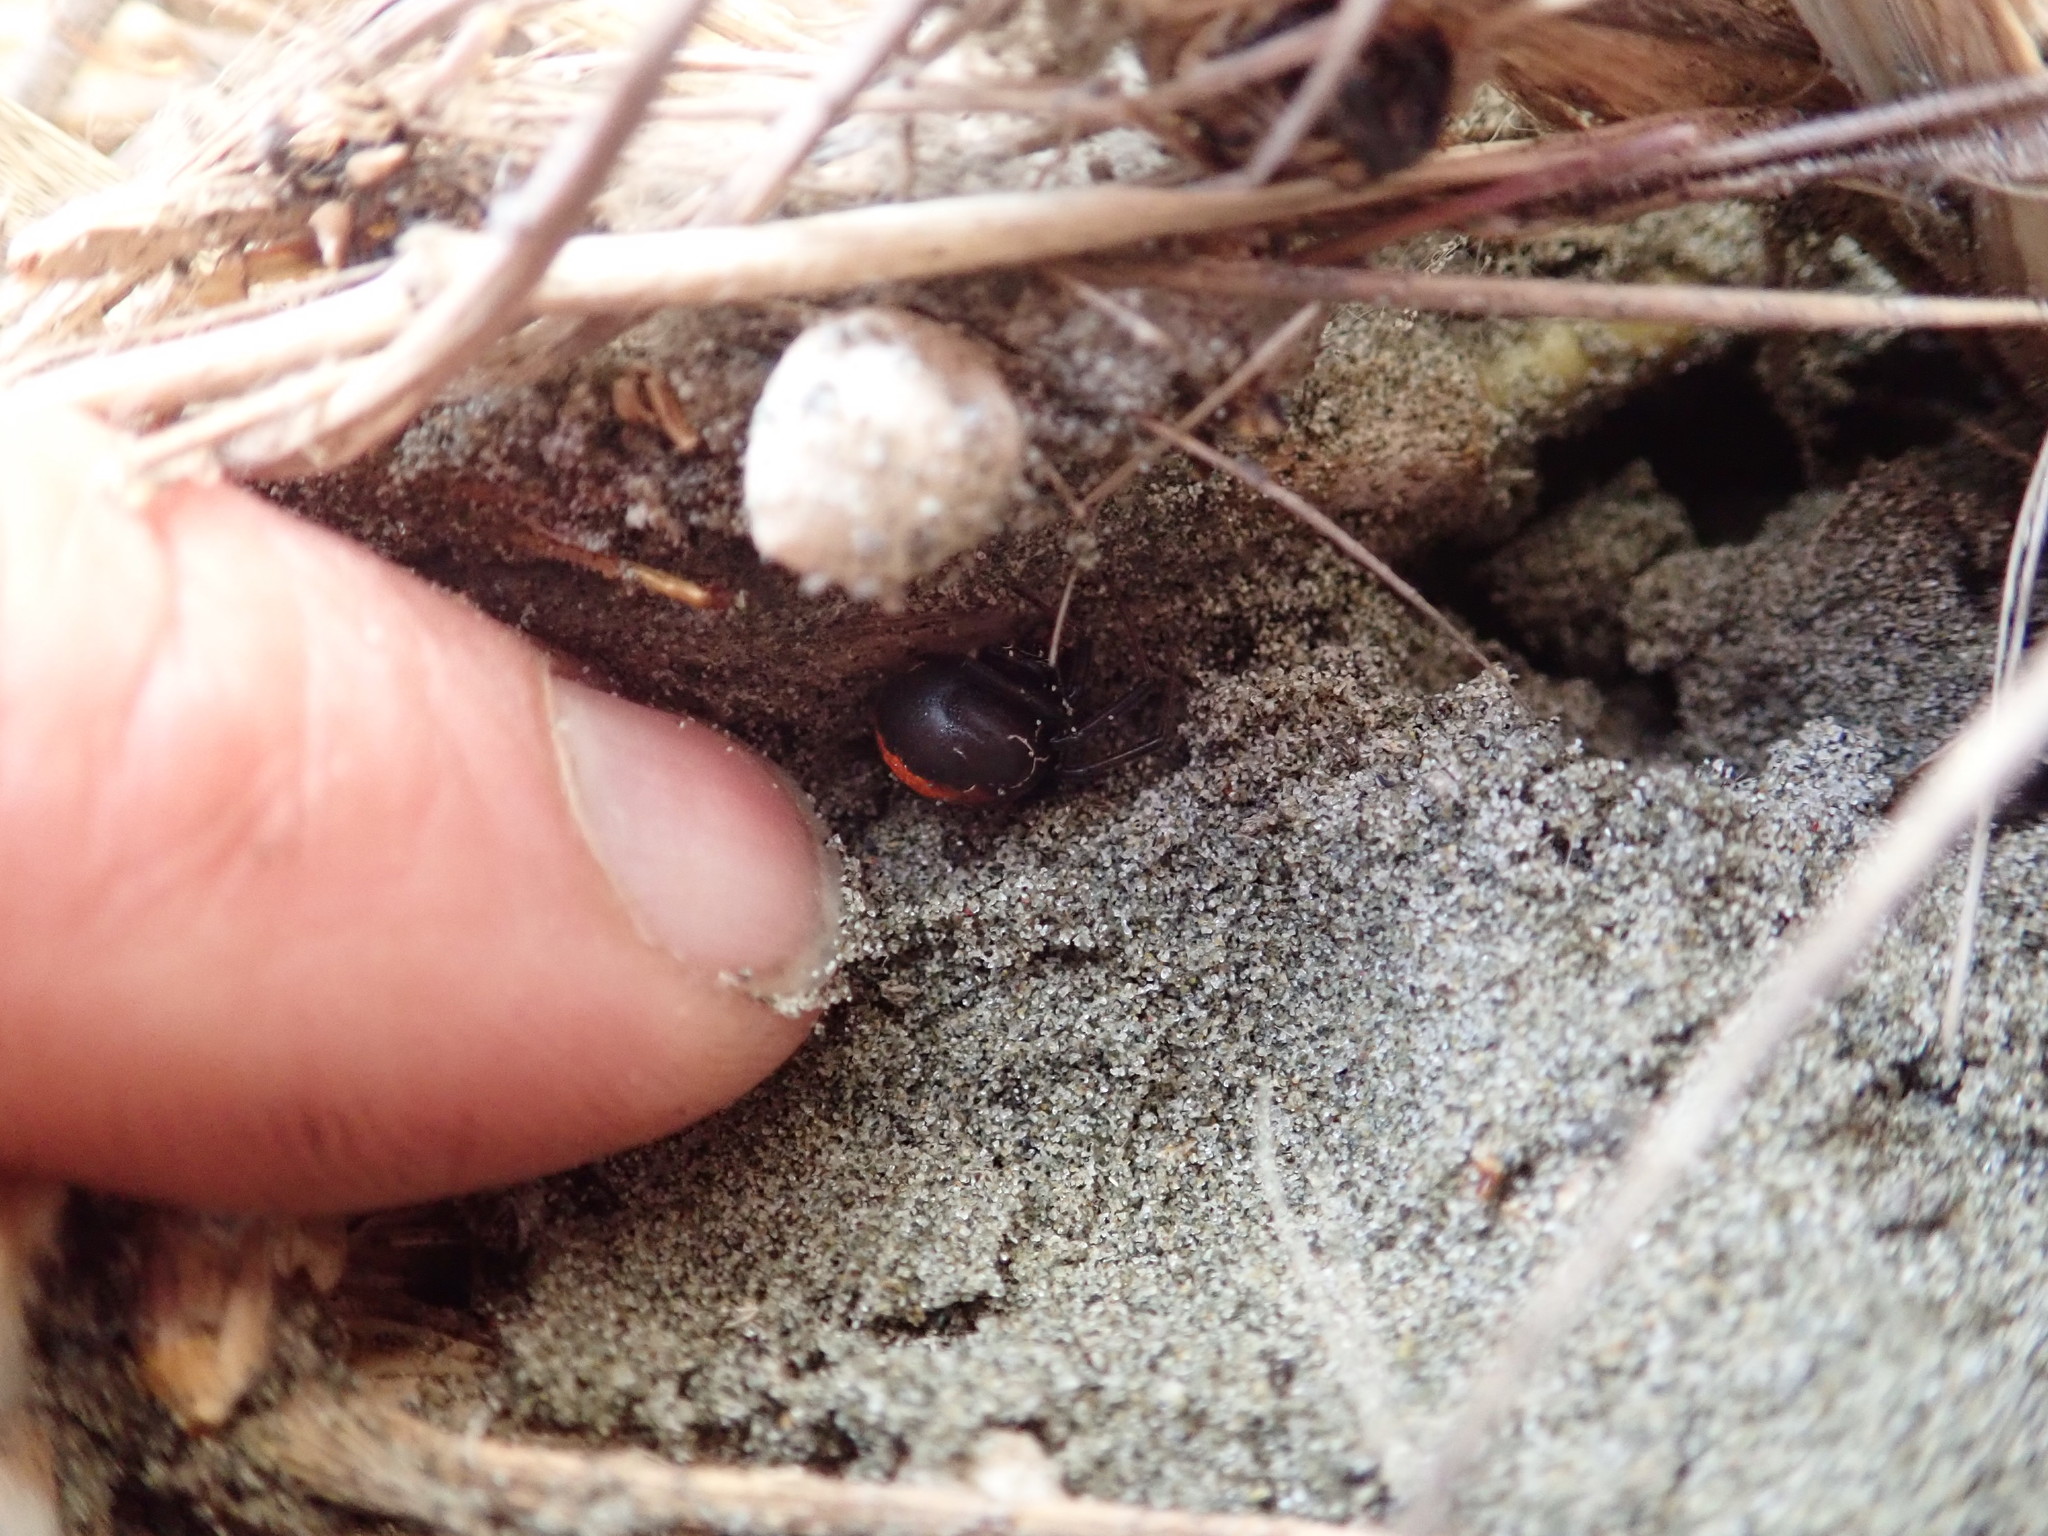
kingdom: Animalia
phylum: Arthropoda
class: Arachnida
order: Araneae
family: Theridiidae
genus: Latrodectus
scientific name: Latrodectus katipo
